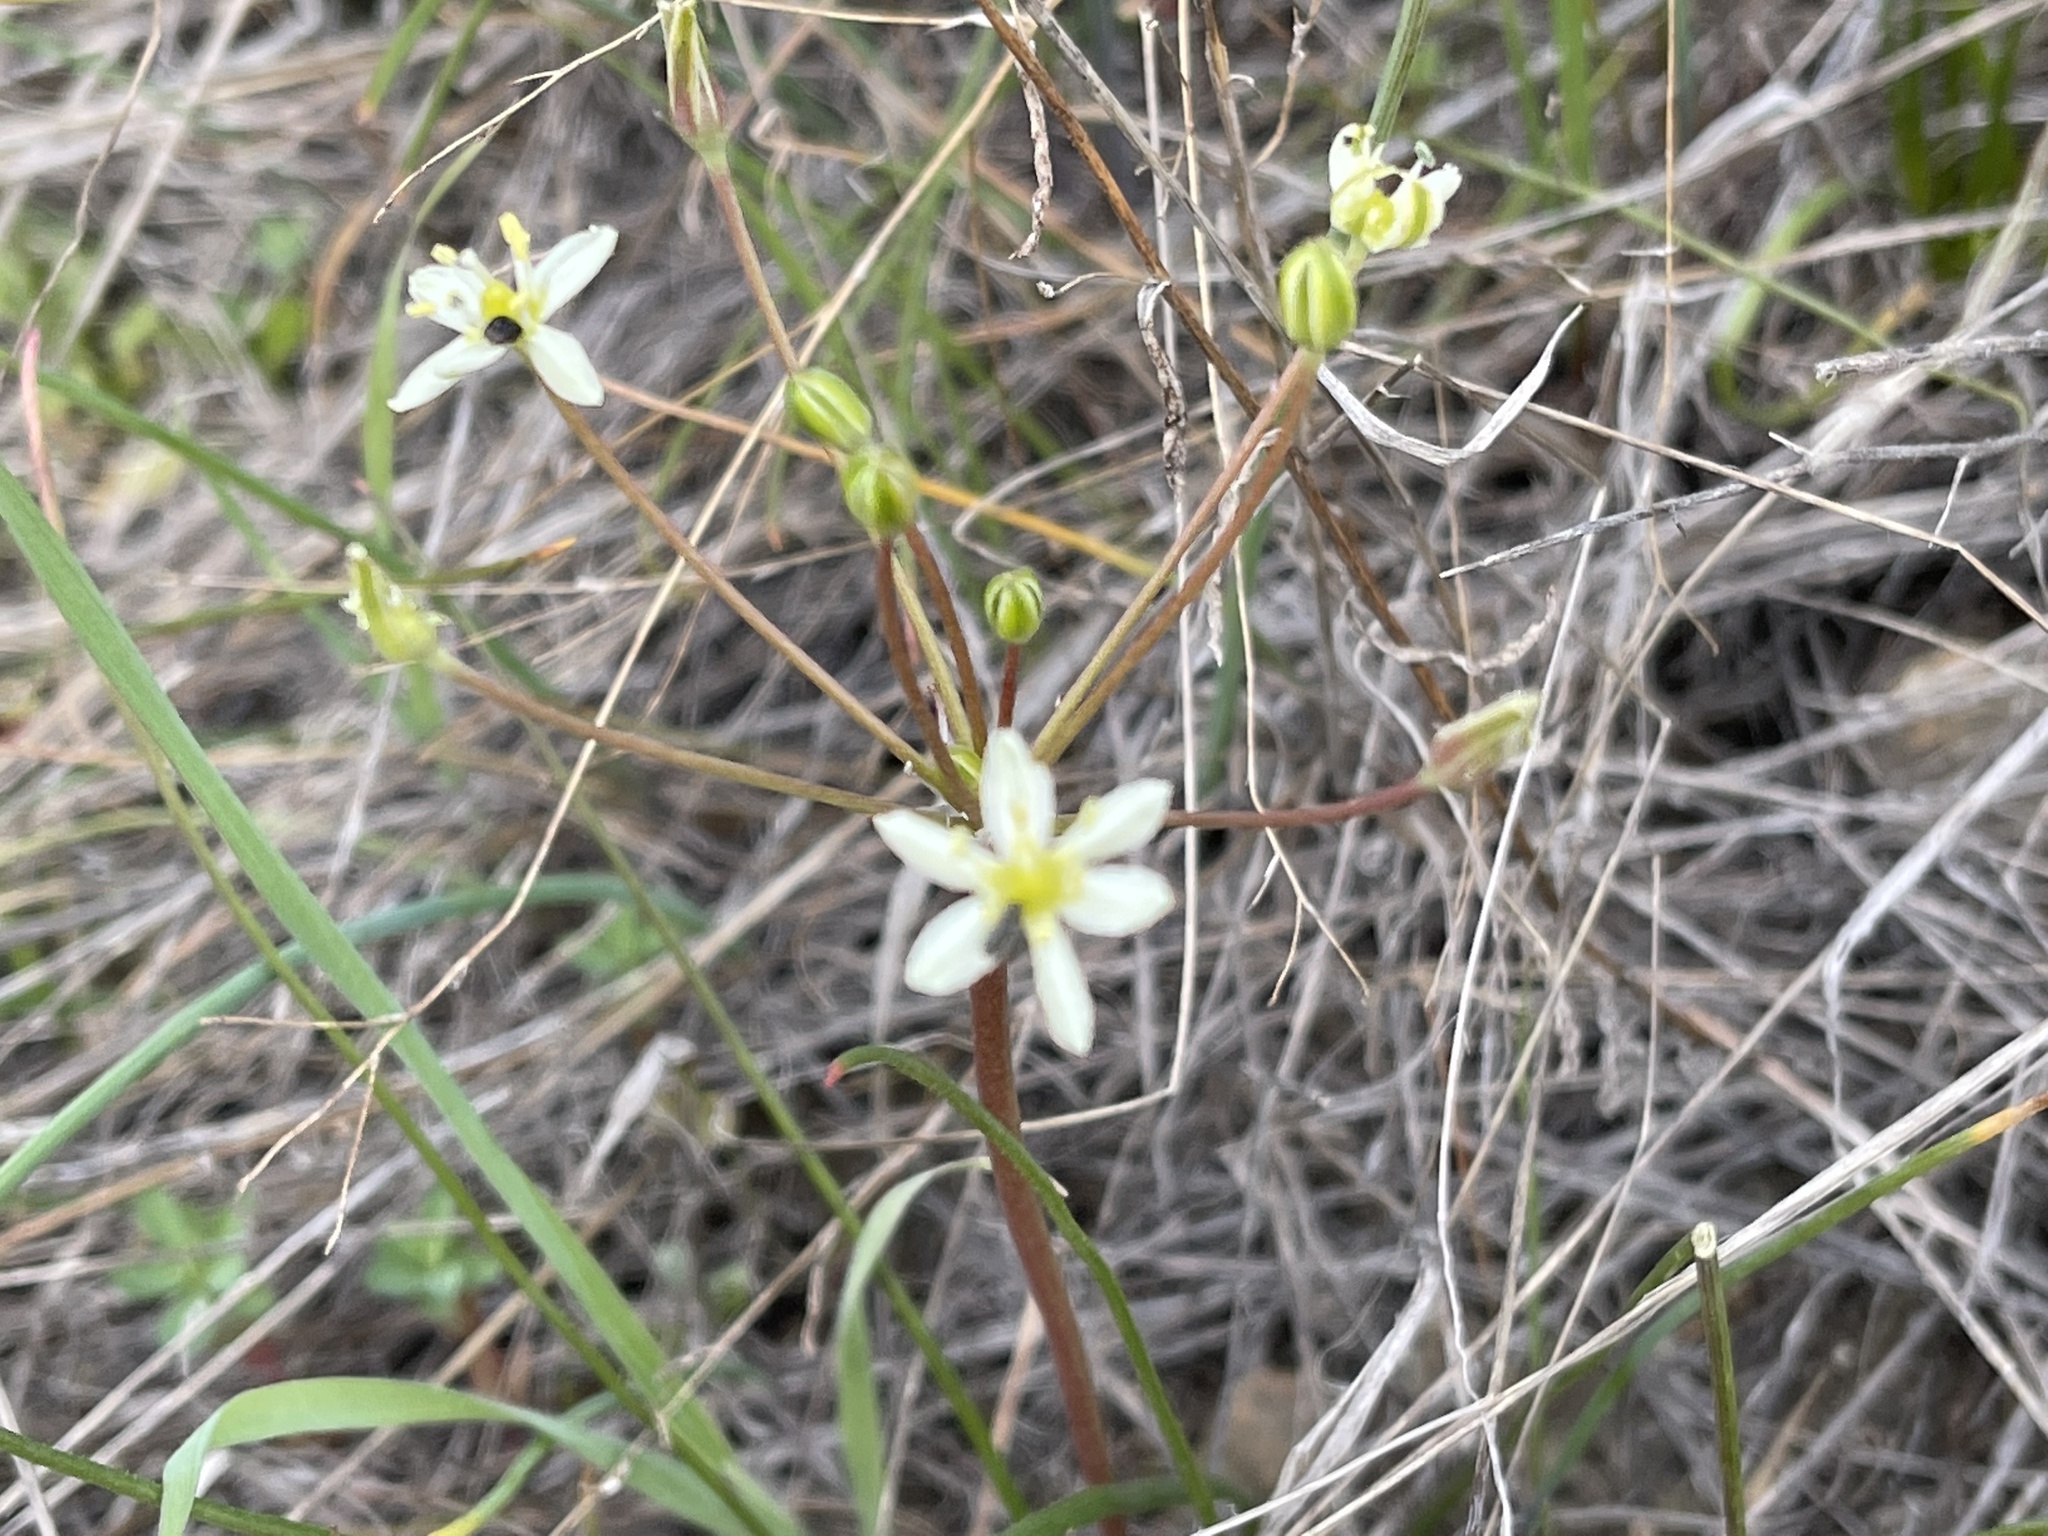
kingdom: Plantae
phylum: Tracheophyta
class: Liliopsida
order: Asparagales
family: Asparagaceae
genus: Muilla
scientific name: Muilla maritima
